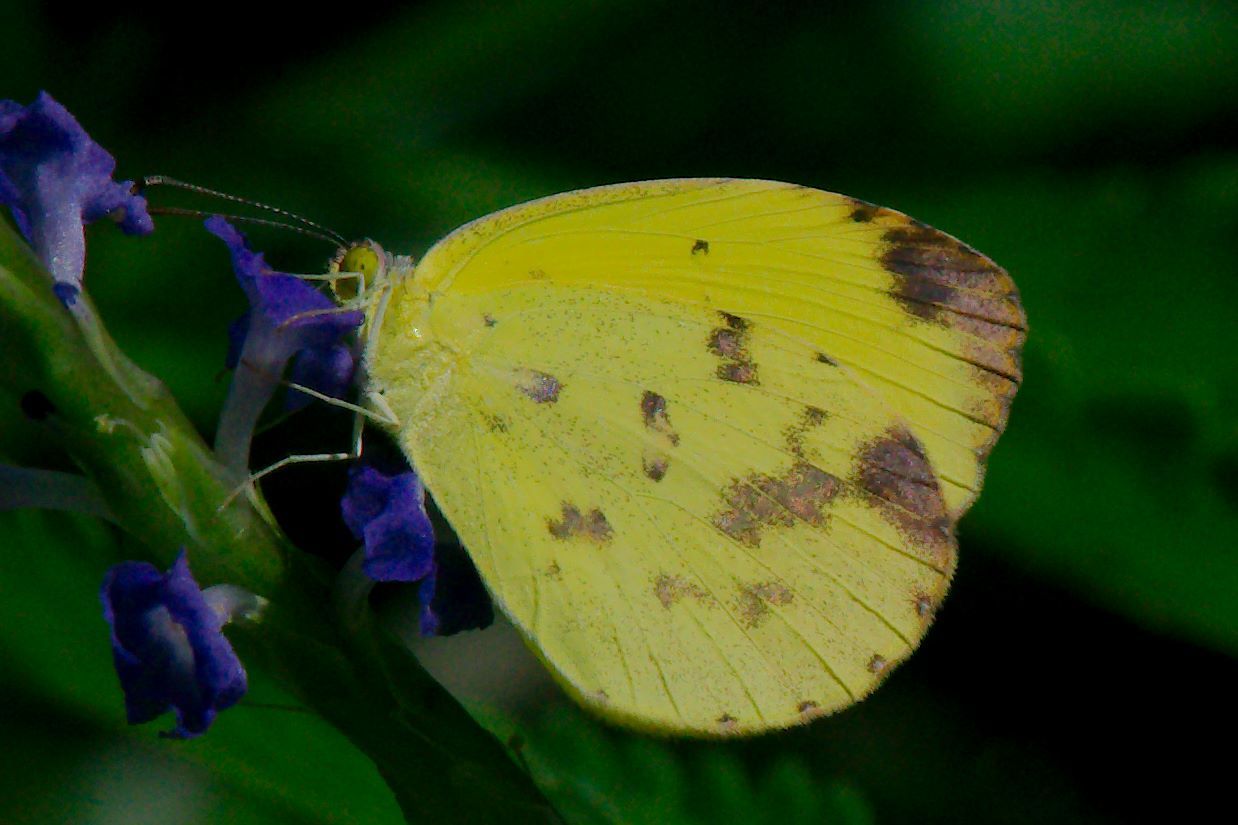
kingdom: Animalia
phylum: Arthropoda
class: Insecta
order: Lepidoptera
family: Pieridae
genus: Pyrisitia
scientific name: Pyrisitia dina
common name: Dina yellow
